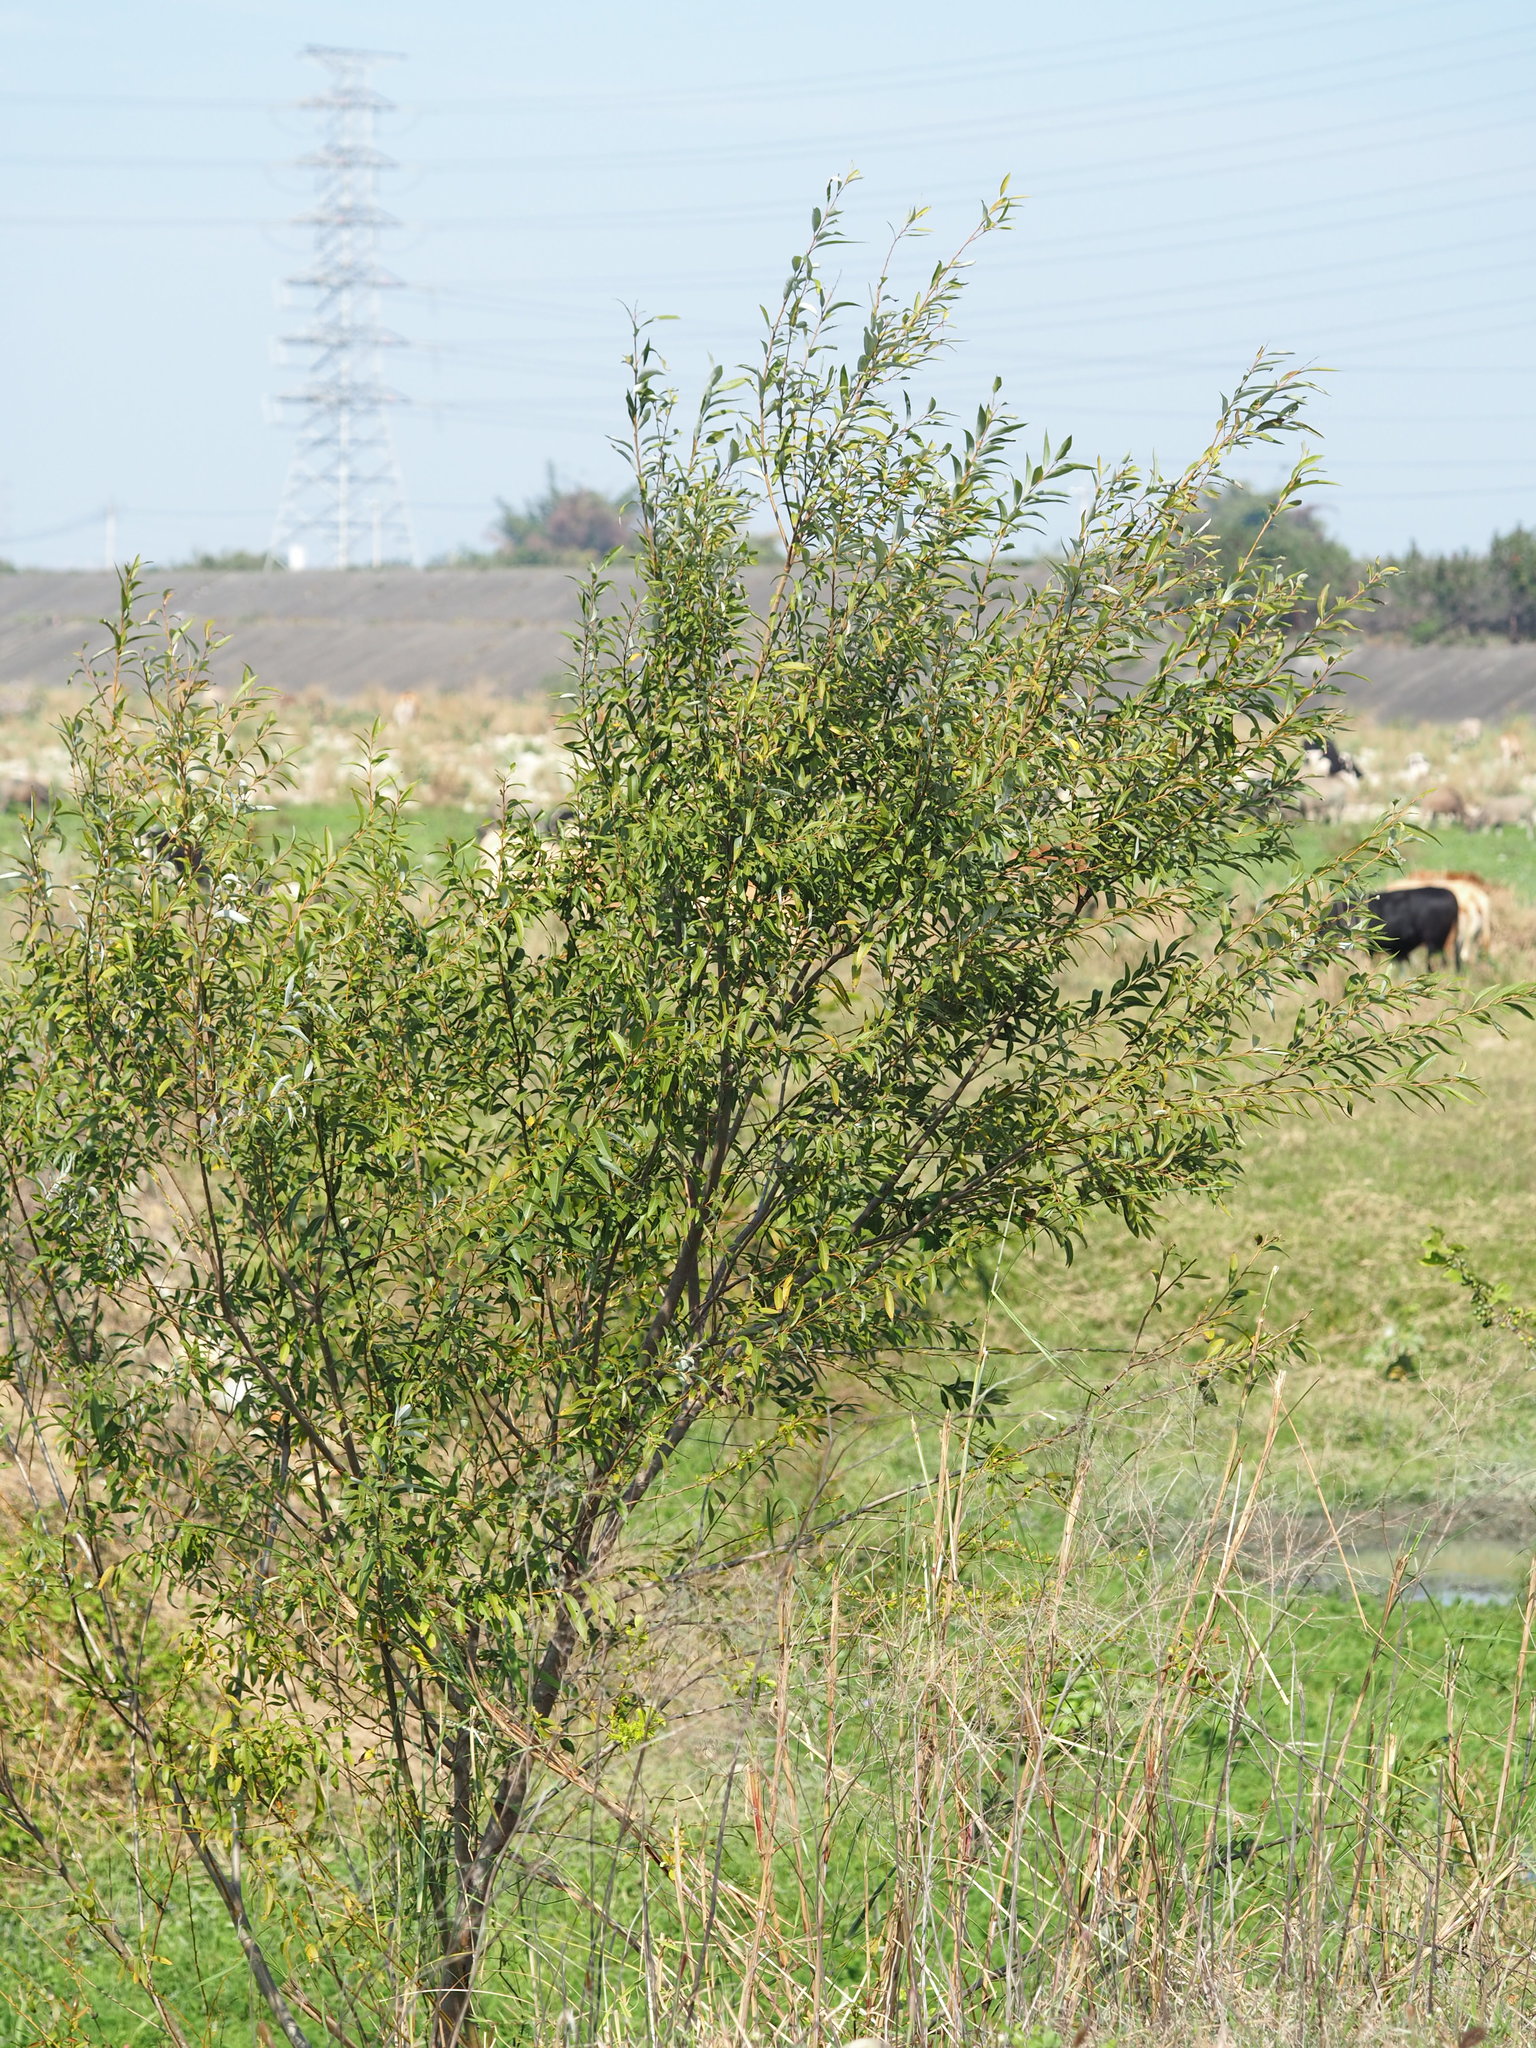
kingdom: Plantae
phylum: Tracheophyta
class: Magnoliopsida
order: Malpighiales
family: Salicaceae
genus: Salix
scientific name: Salix mesnyi
